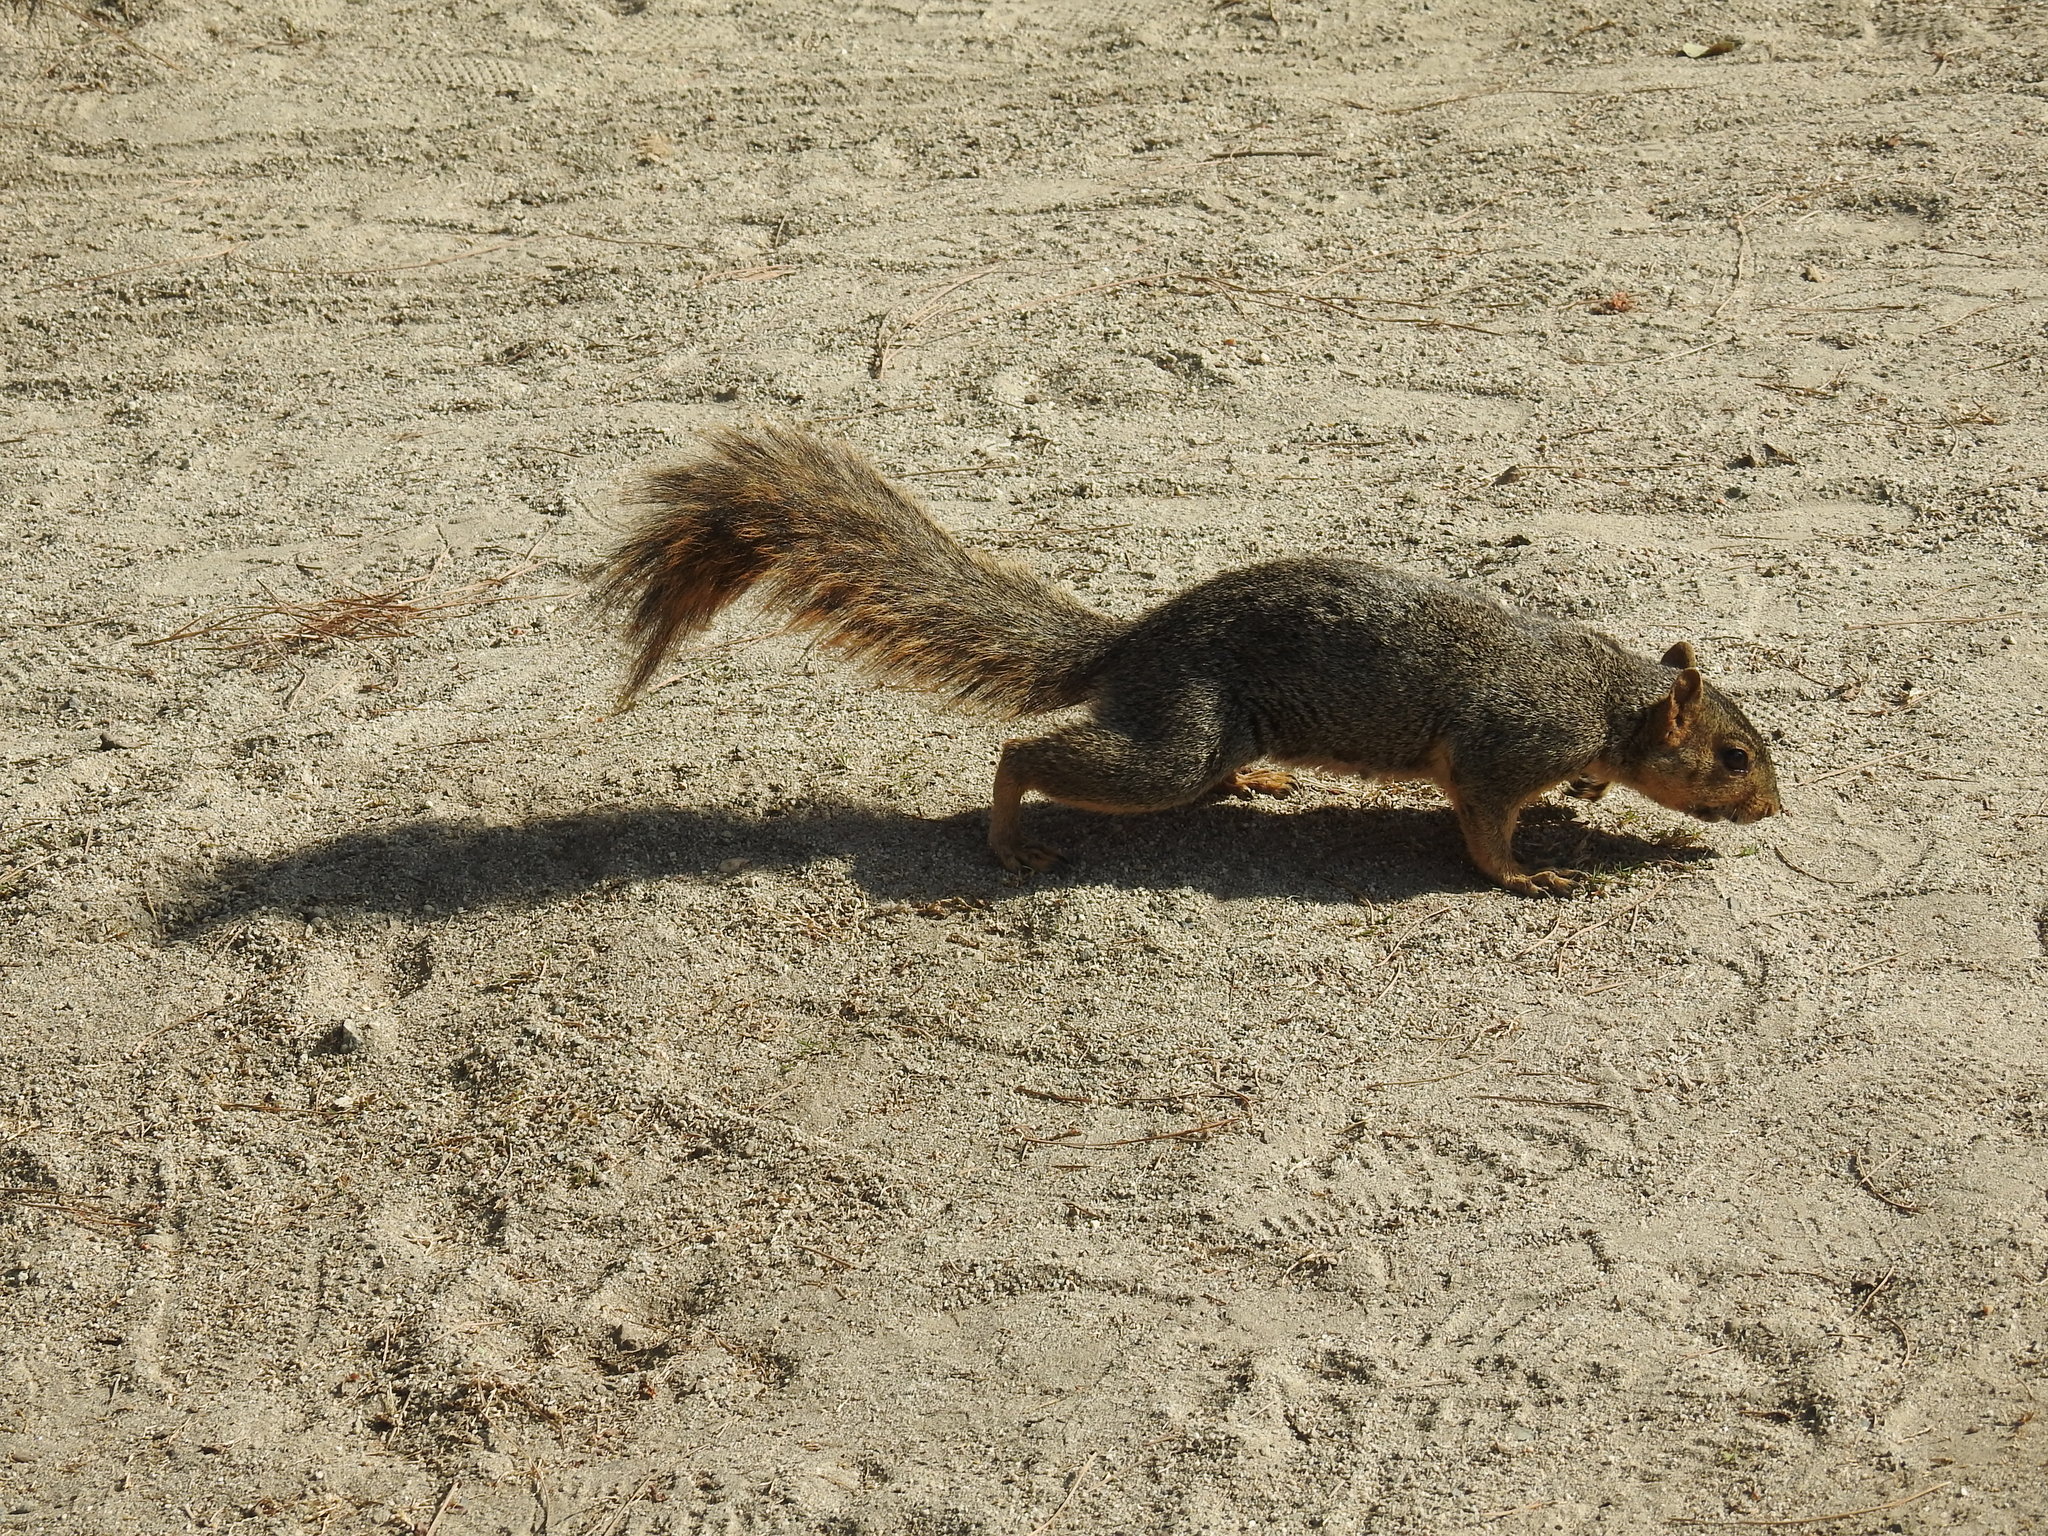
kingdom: Animalia
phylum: Chordata
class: Mammalia
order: Rodentia
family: Sciuridae
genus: Sciurus
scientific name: Sciurus niger
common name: Fox squirrel
